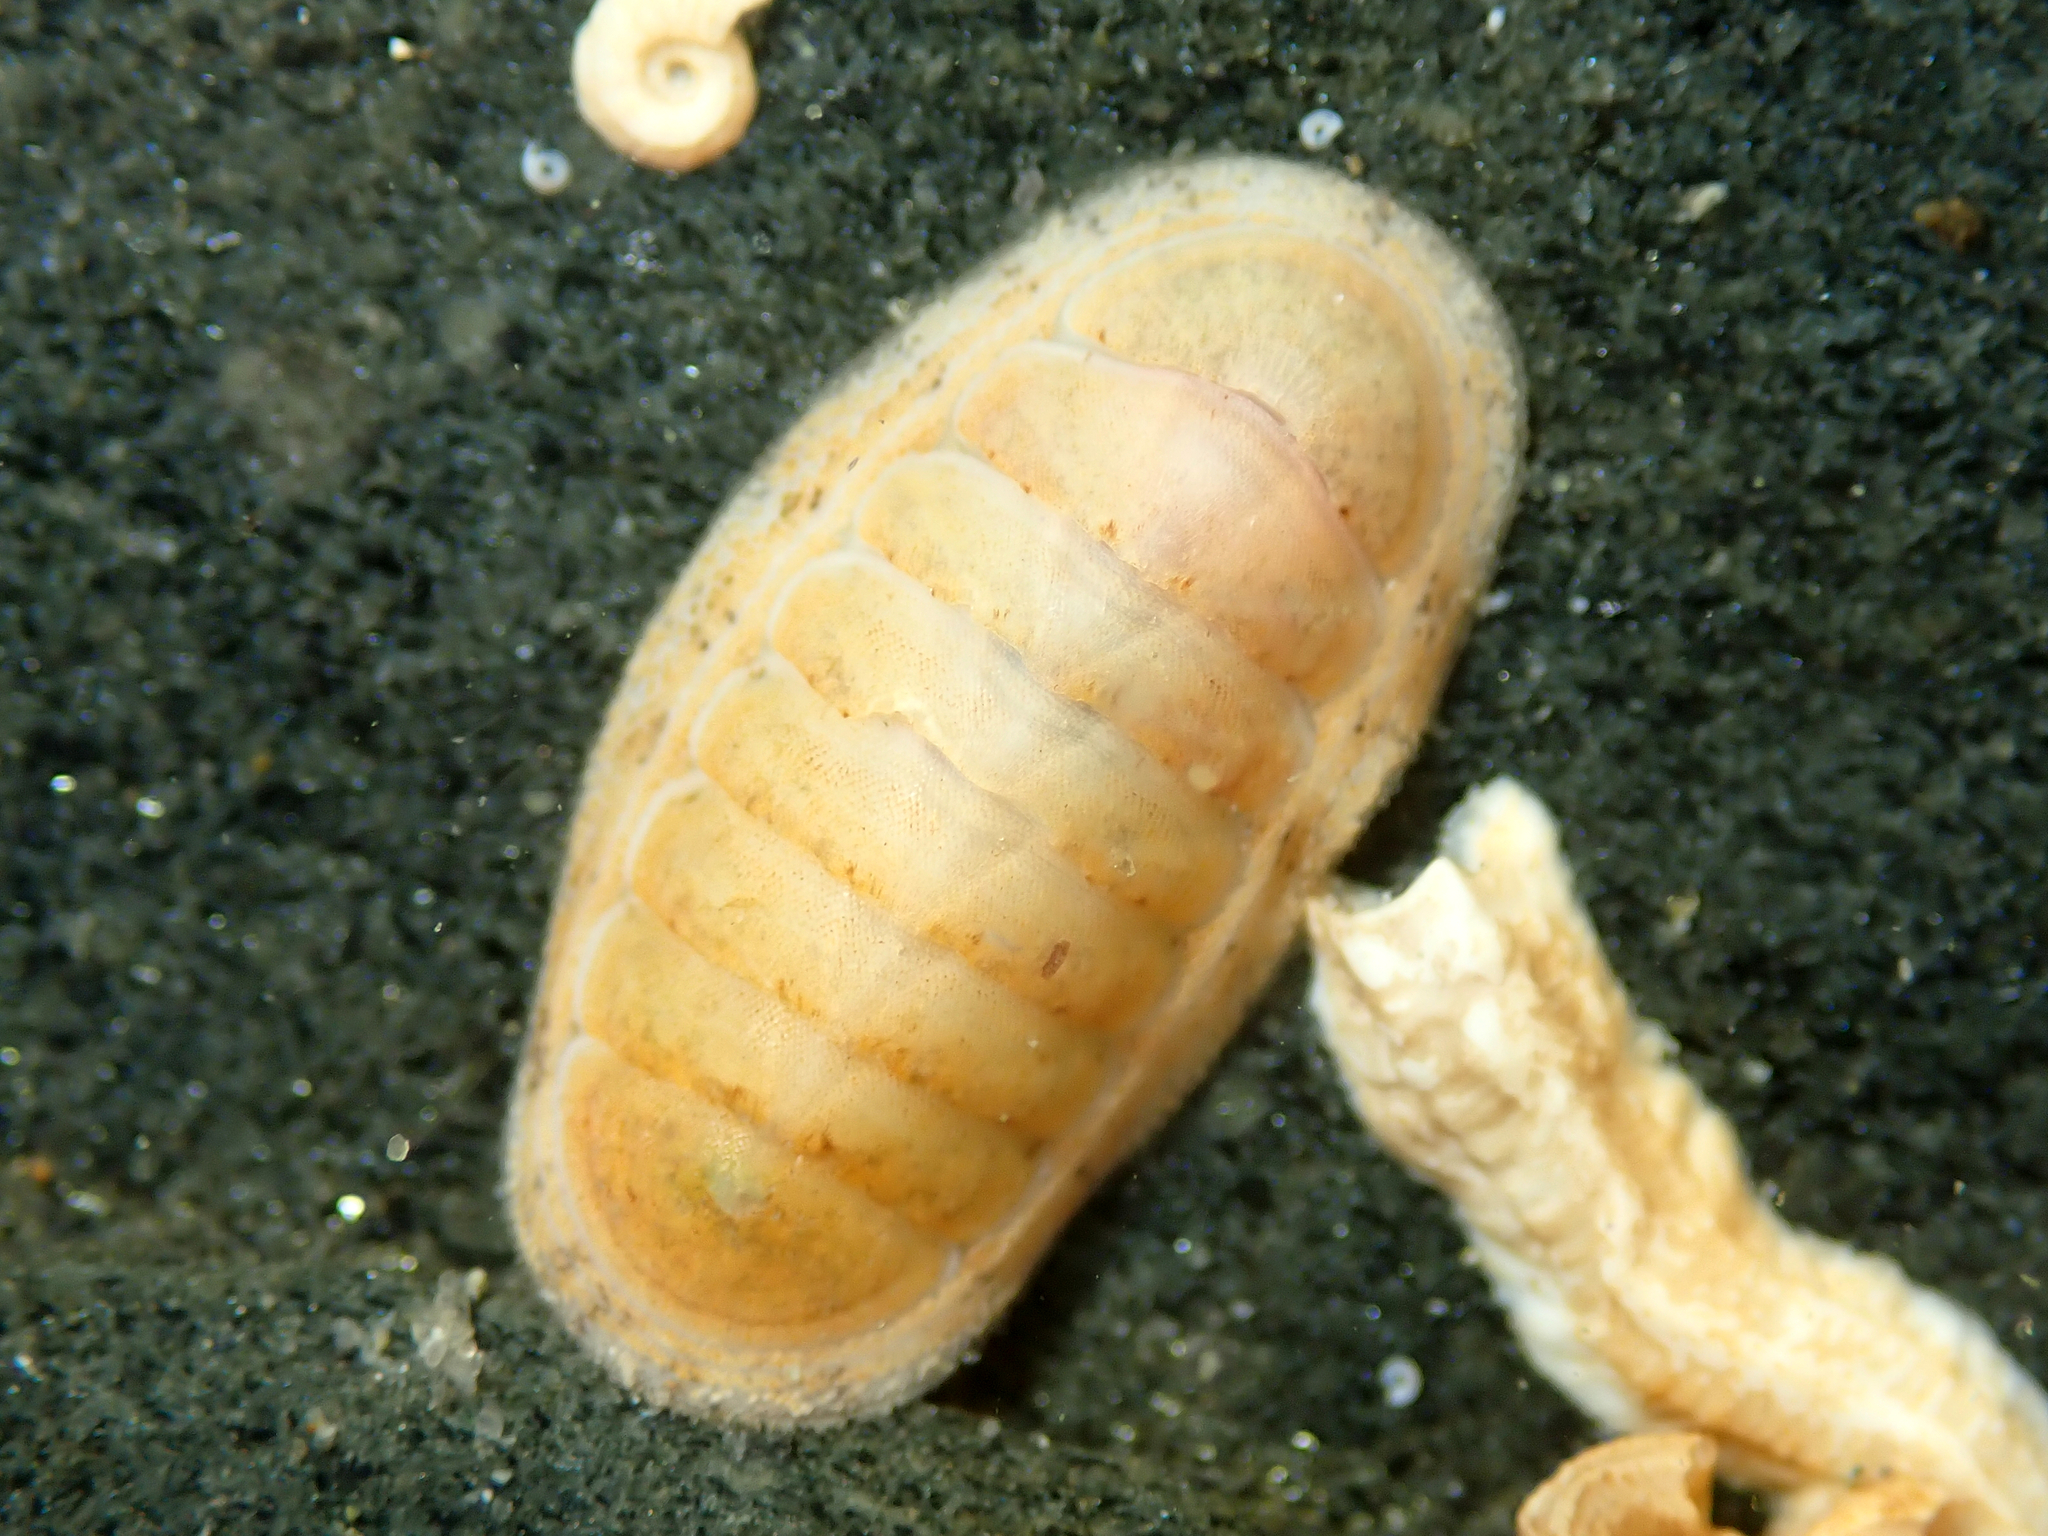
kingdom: Animalia
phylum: Mollusca
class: Polyplacophora
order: Chitonida
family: Ischnochitonidae
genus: Ischnochiton
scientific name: Ischnochiton circumvallatus
